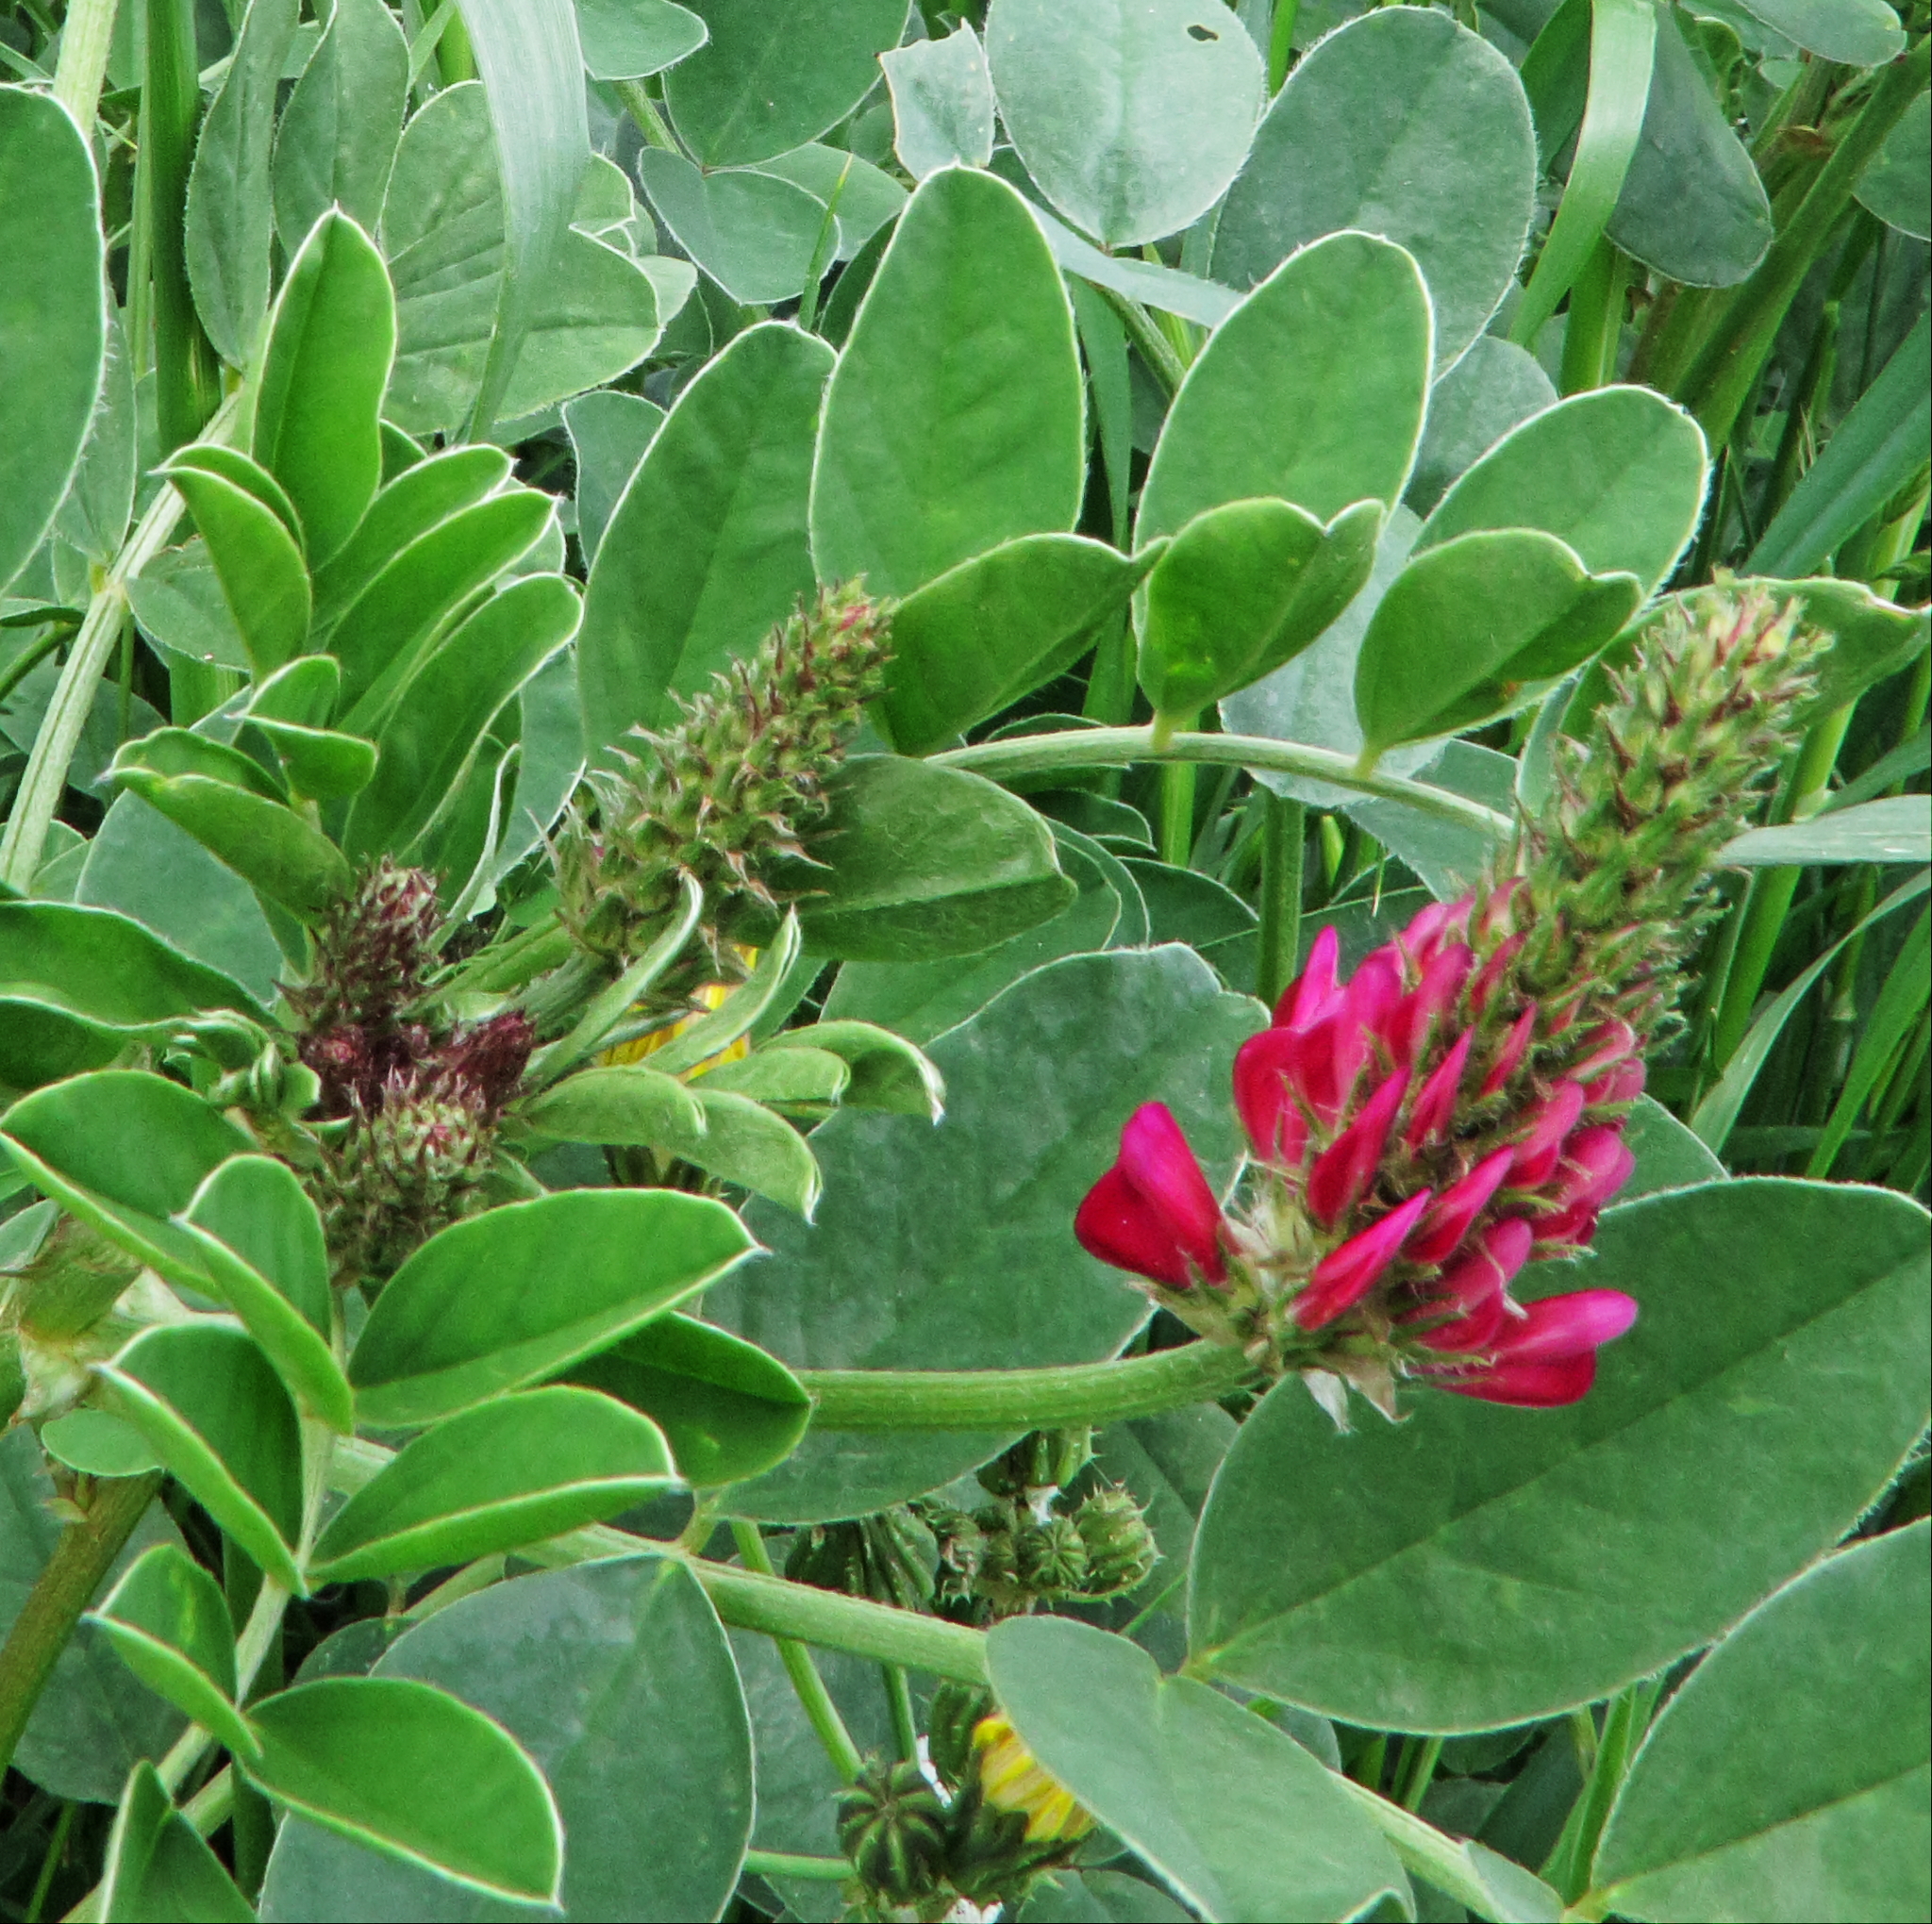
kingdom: Plantae
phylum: Tracheophyta
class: Magnoliopsida
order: Fabales
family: Fabaceae
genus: Sulla
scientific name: Sulla coronaria
